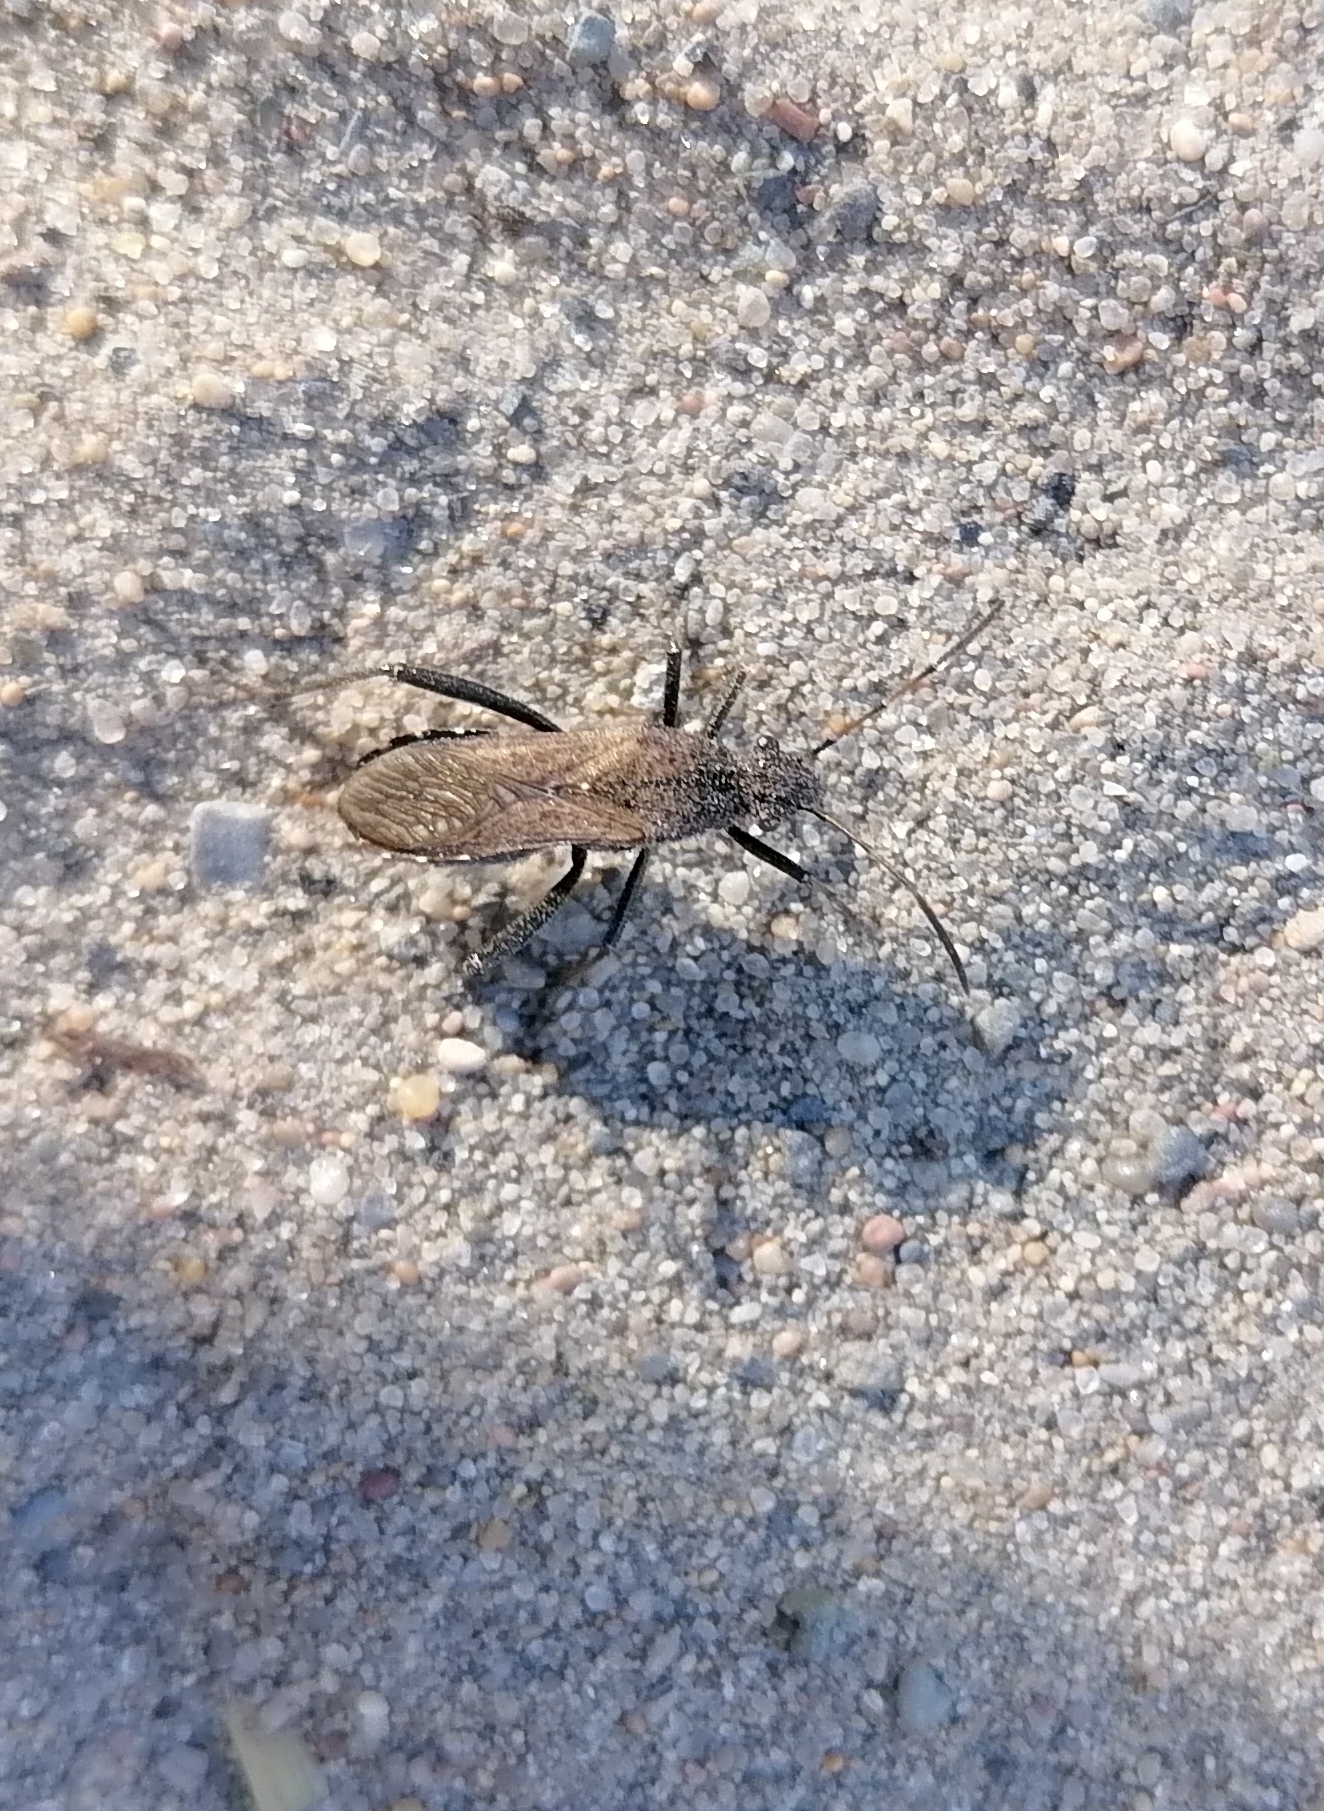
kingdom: Animalia
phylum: Arthropoda
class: Insecta
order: Hemiptera
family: Alydidae
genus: Alydus
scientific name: Alydus calcaratus
